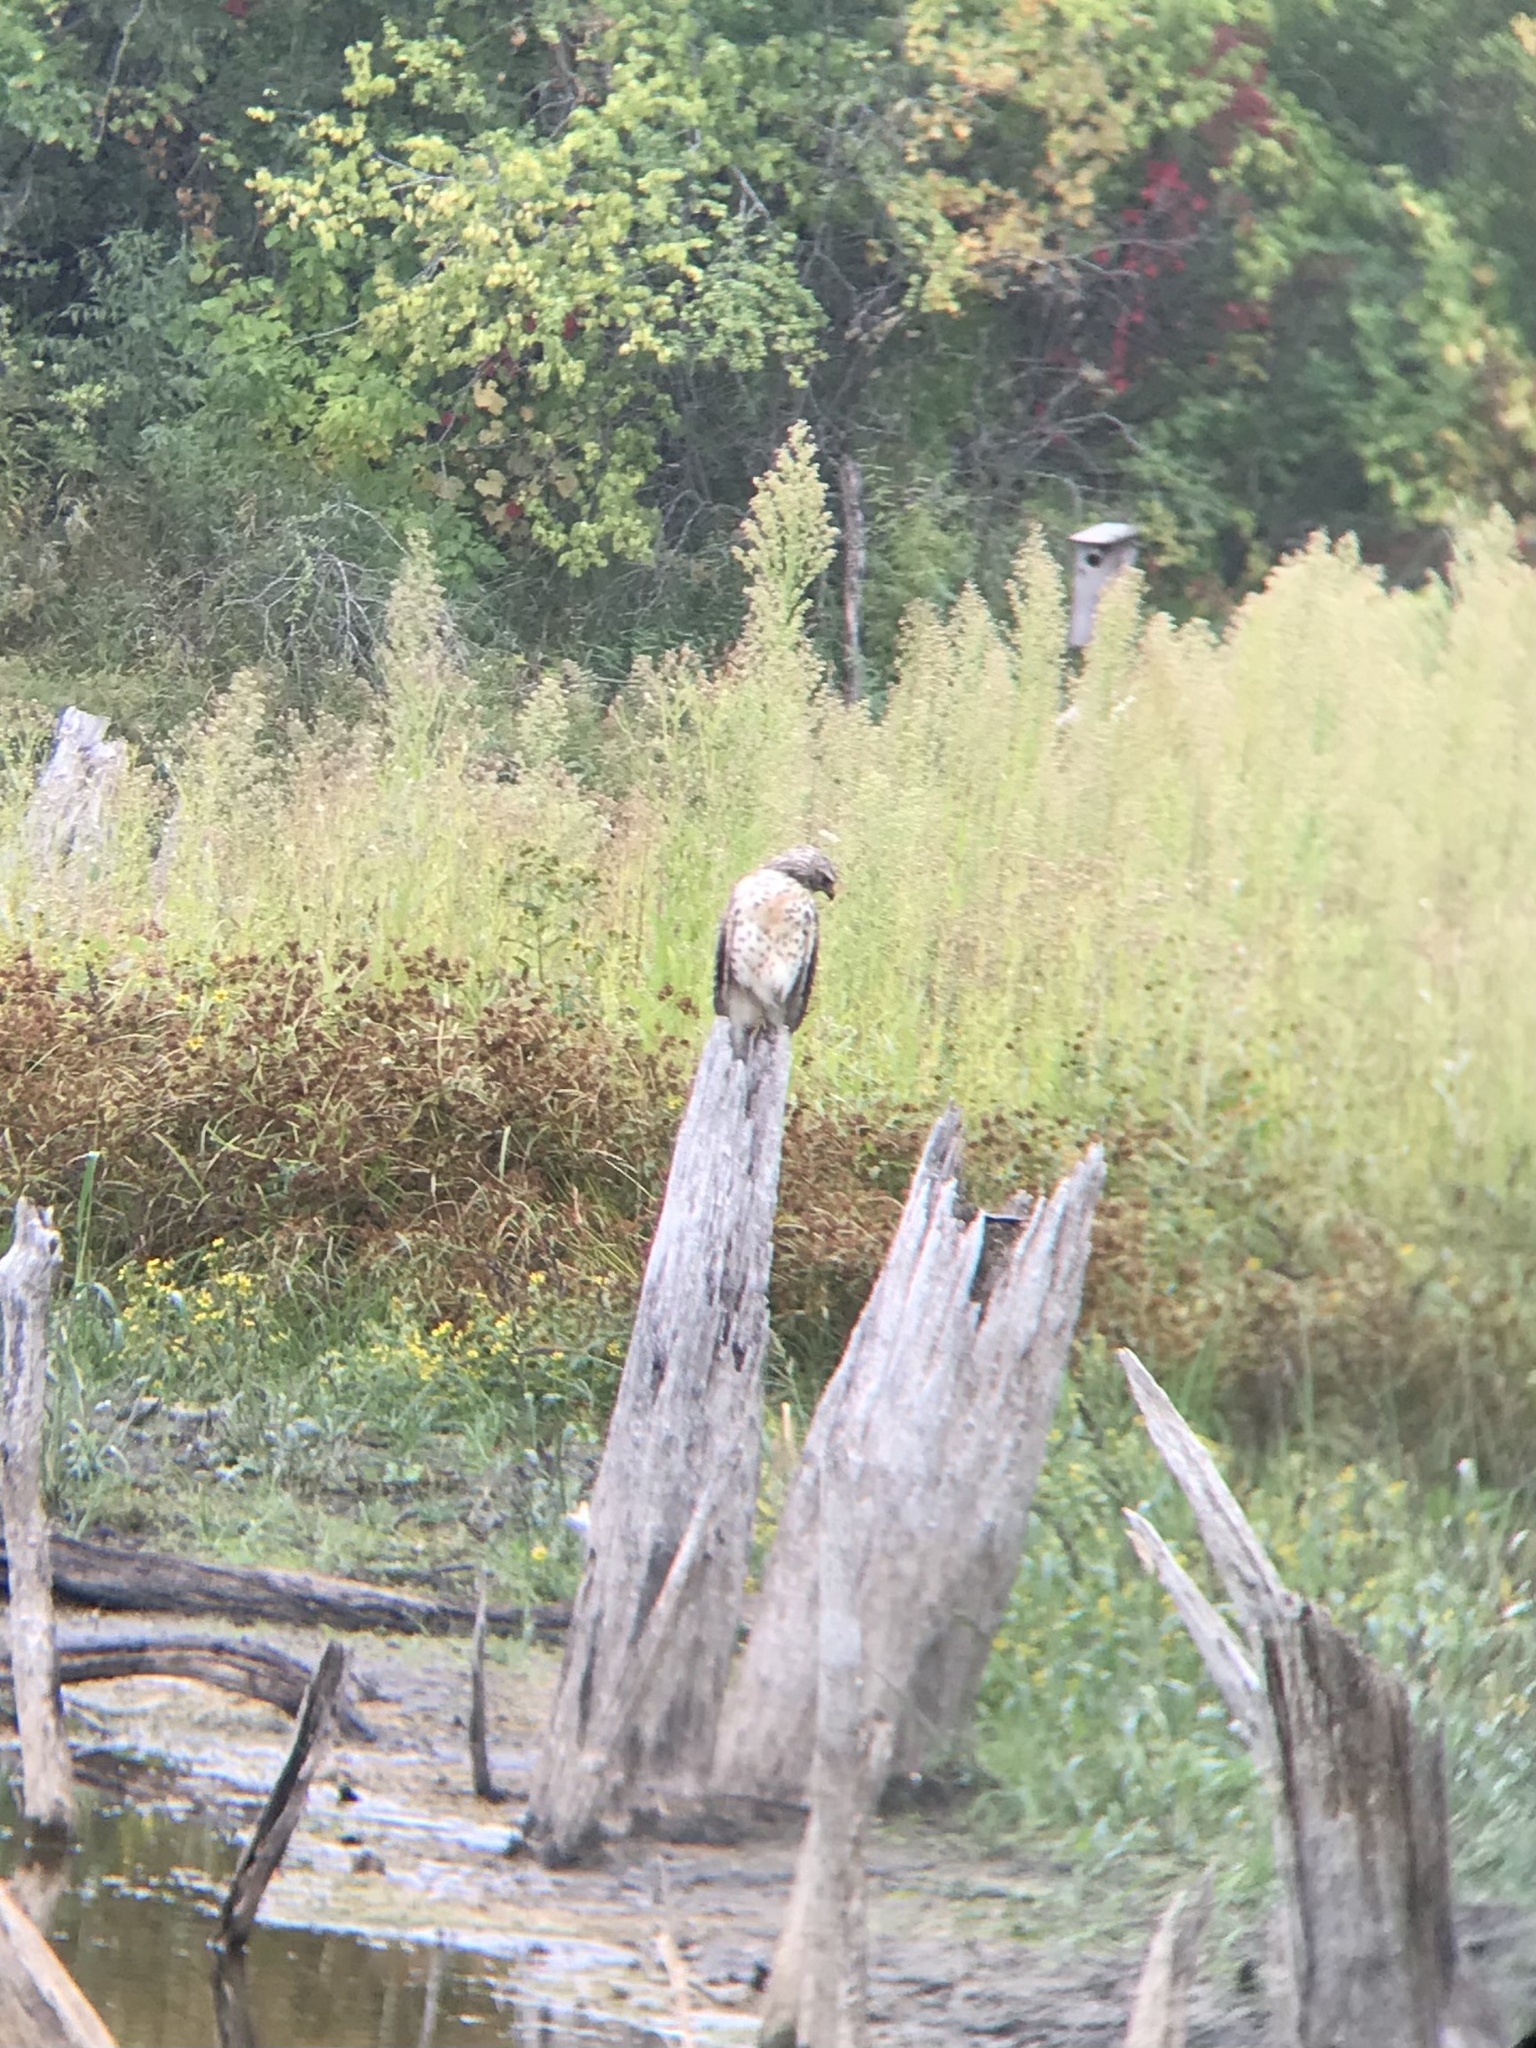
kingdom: Animalia
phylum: Chordata
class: Aves
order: Accipitriformes
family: Accipitridae
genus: Buteo
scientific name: Buteo lineatus
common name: Red-shouldered hawk
